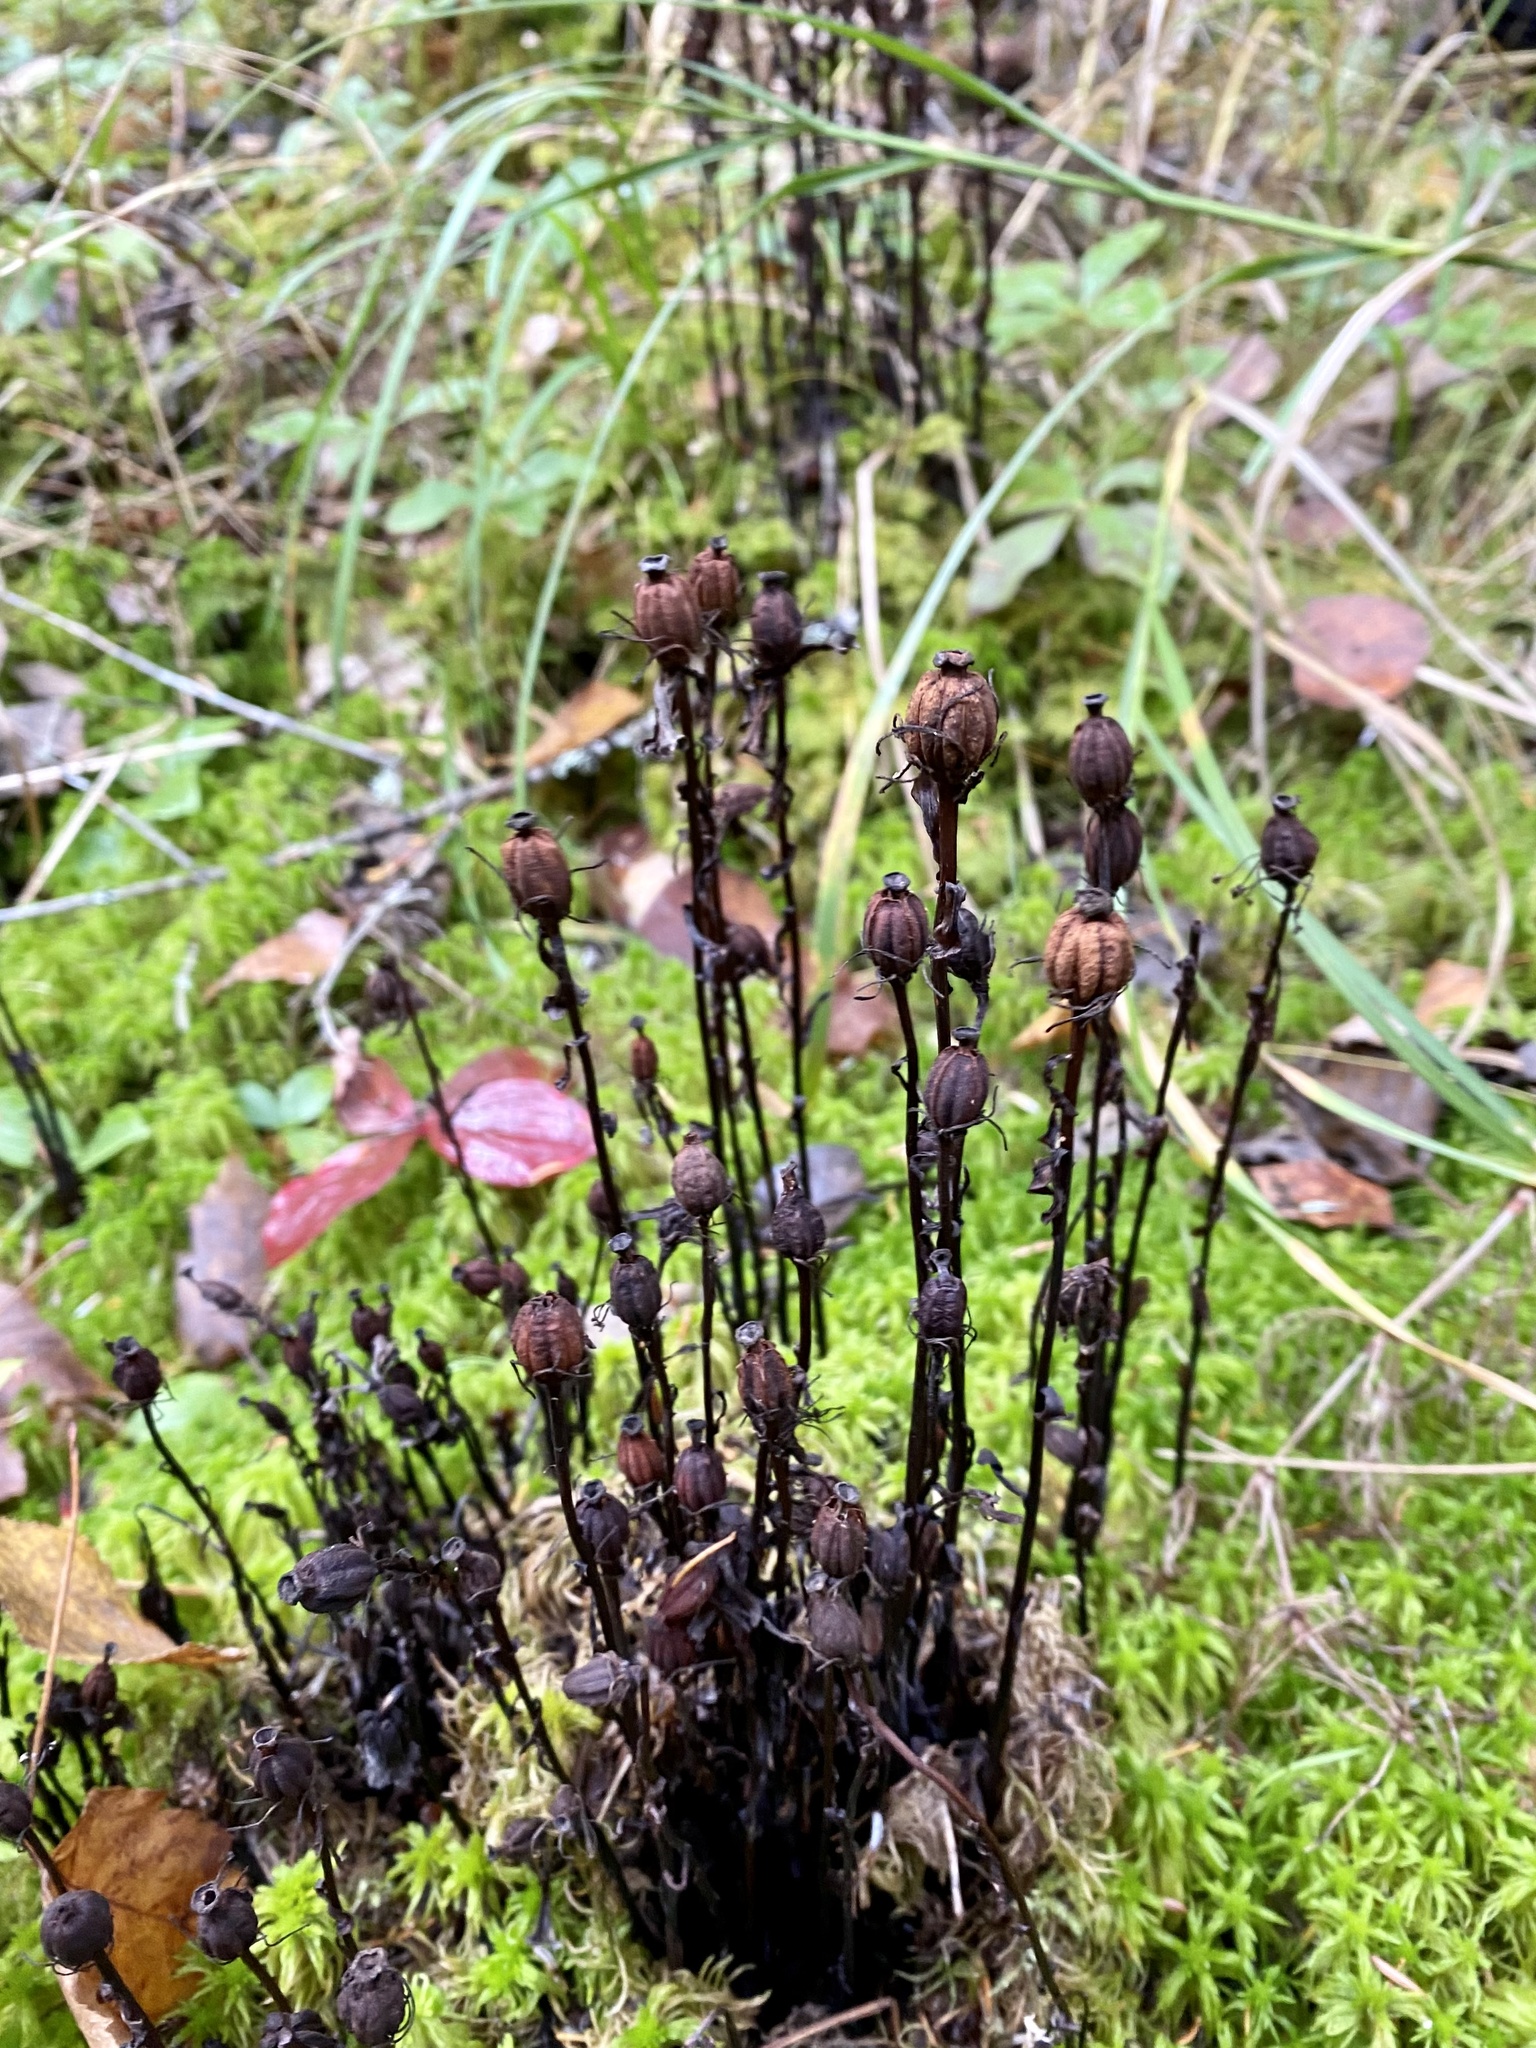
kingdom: Plantae
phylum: Tracheophyta
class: Magnoliopsida
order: Ericales
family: Ericaceae
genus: Monotropa
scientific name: Monotropa uniflora
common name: Convulsion root
